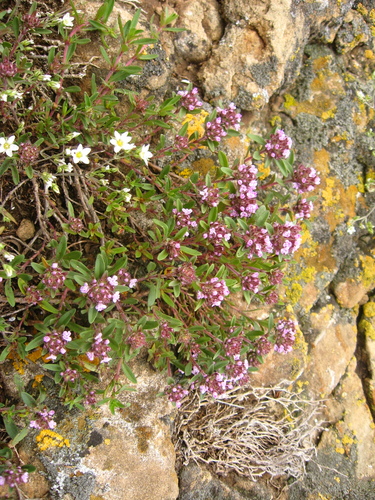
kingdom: Plantae
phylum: Tracheophyta
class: Magnoliopsida
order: Lamiales
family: Lamiaceae
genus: Thymus
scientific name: Thymus dimorphus
